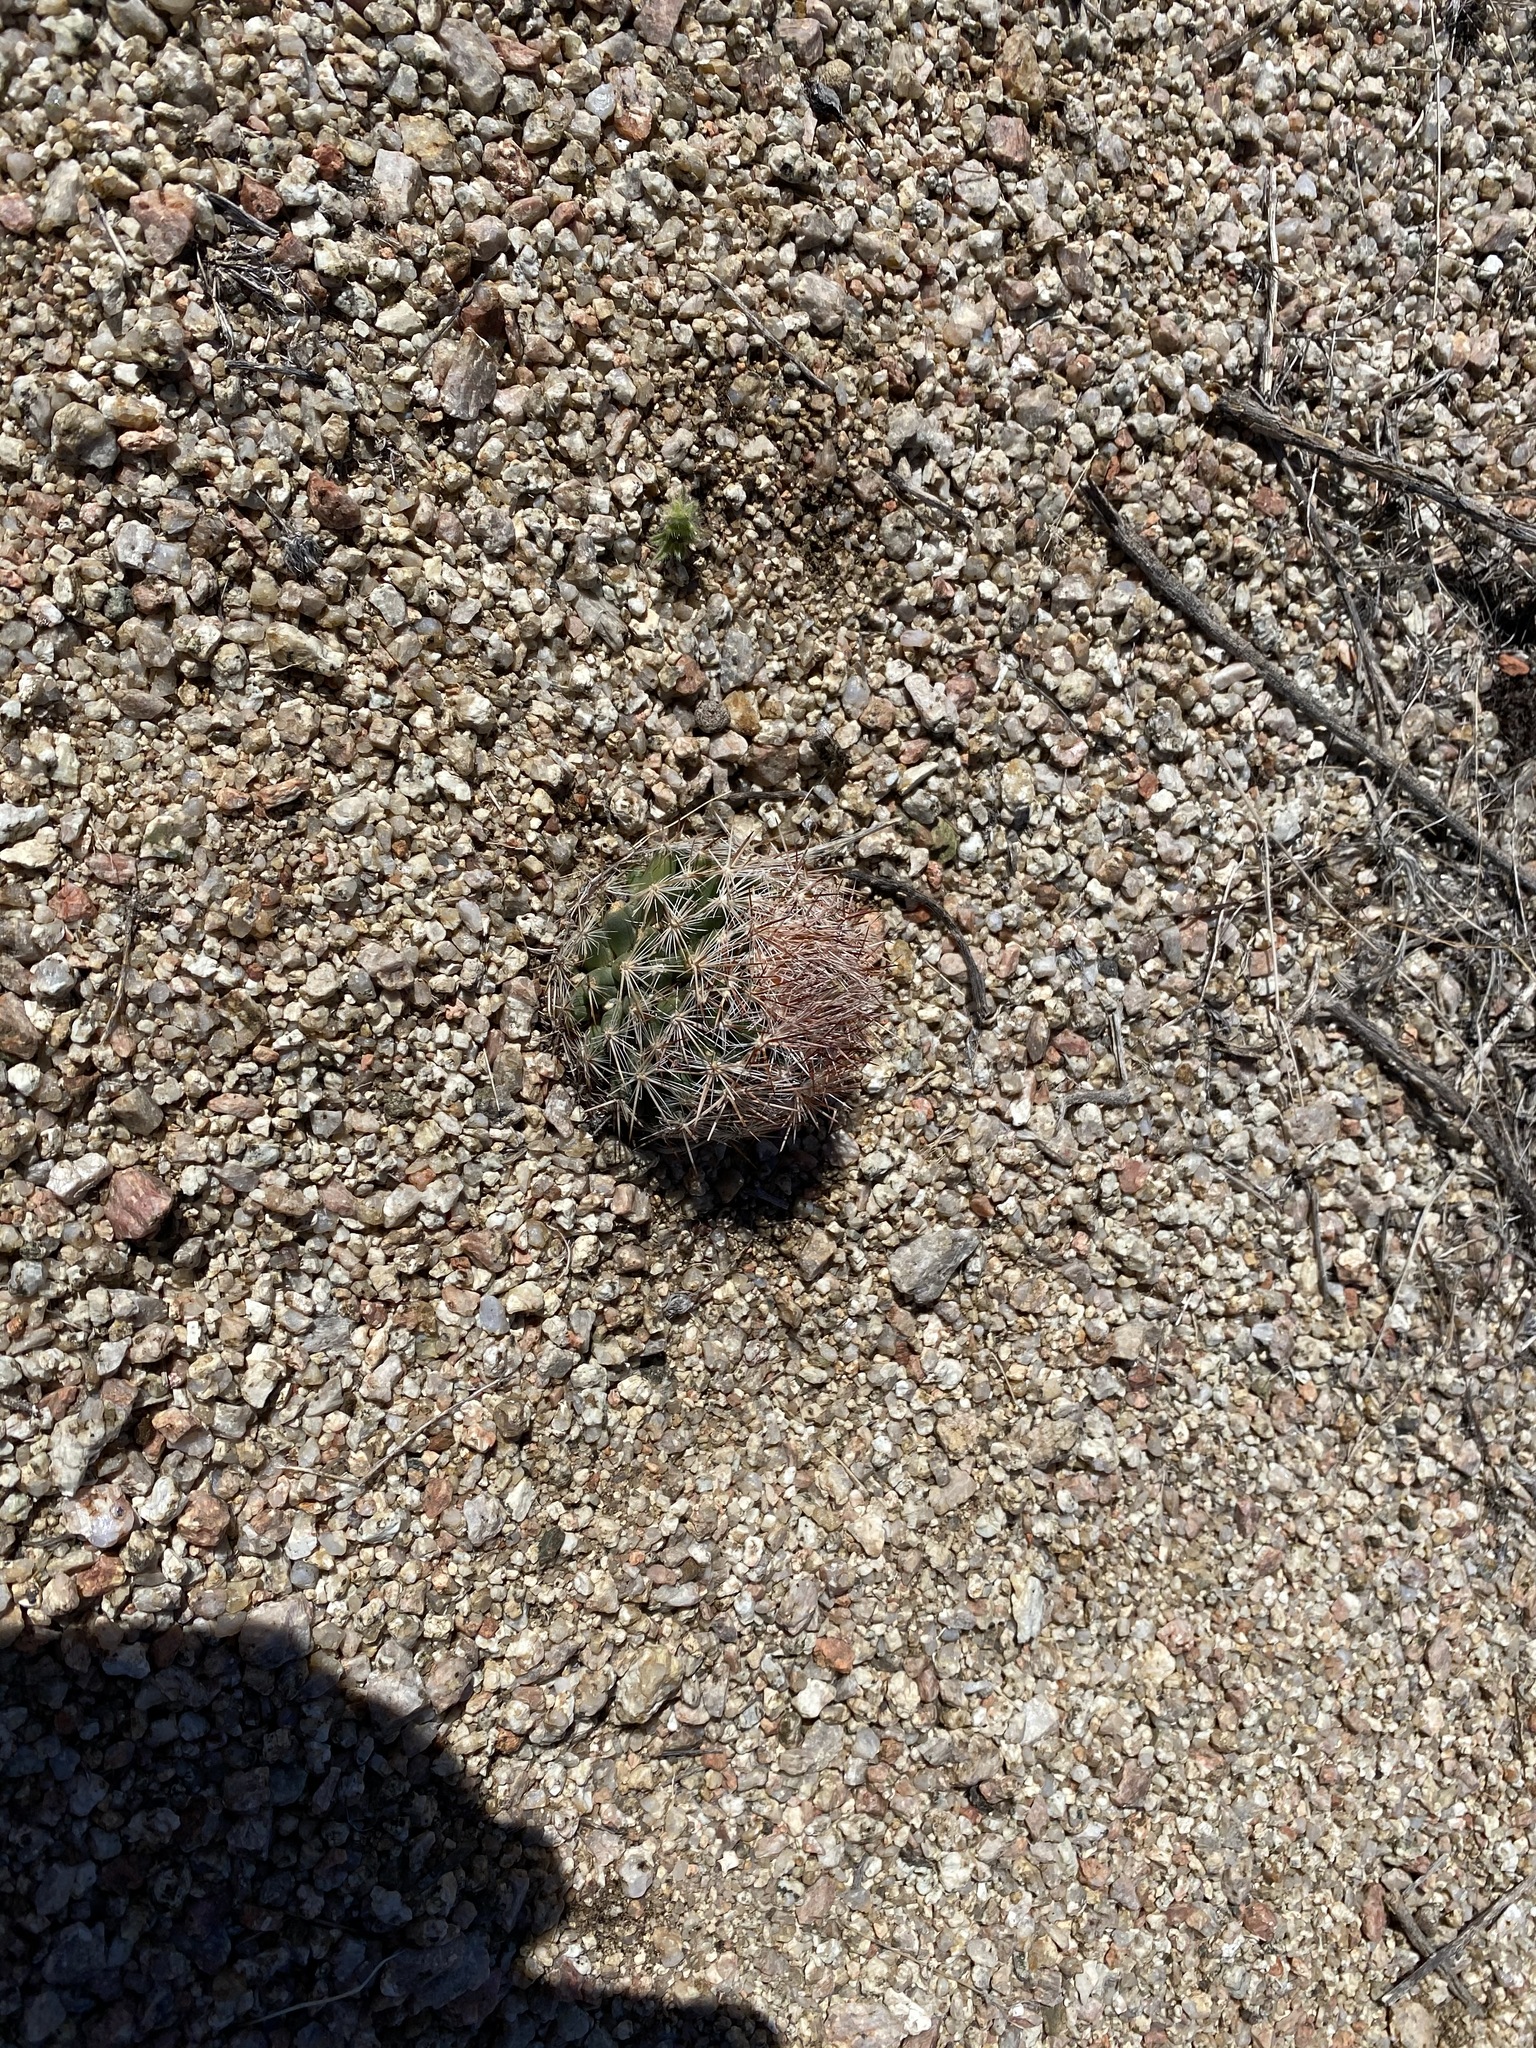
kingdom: Plantae
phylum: Tracheophyta
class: Magnoliopsida
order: Caryophyllales
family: Cactaceae
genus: Pelecyphora
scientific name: Pelecyphora vivipara
